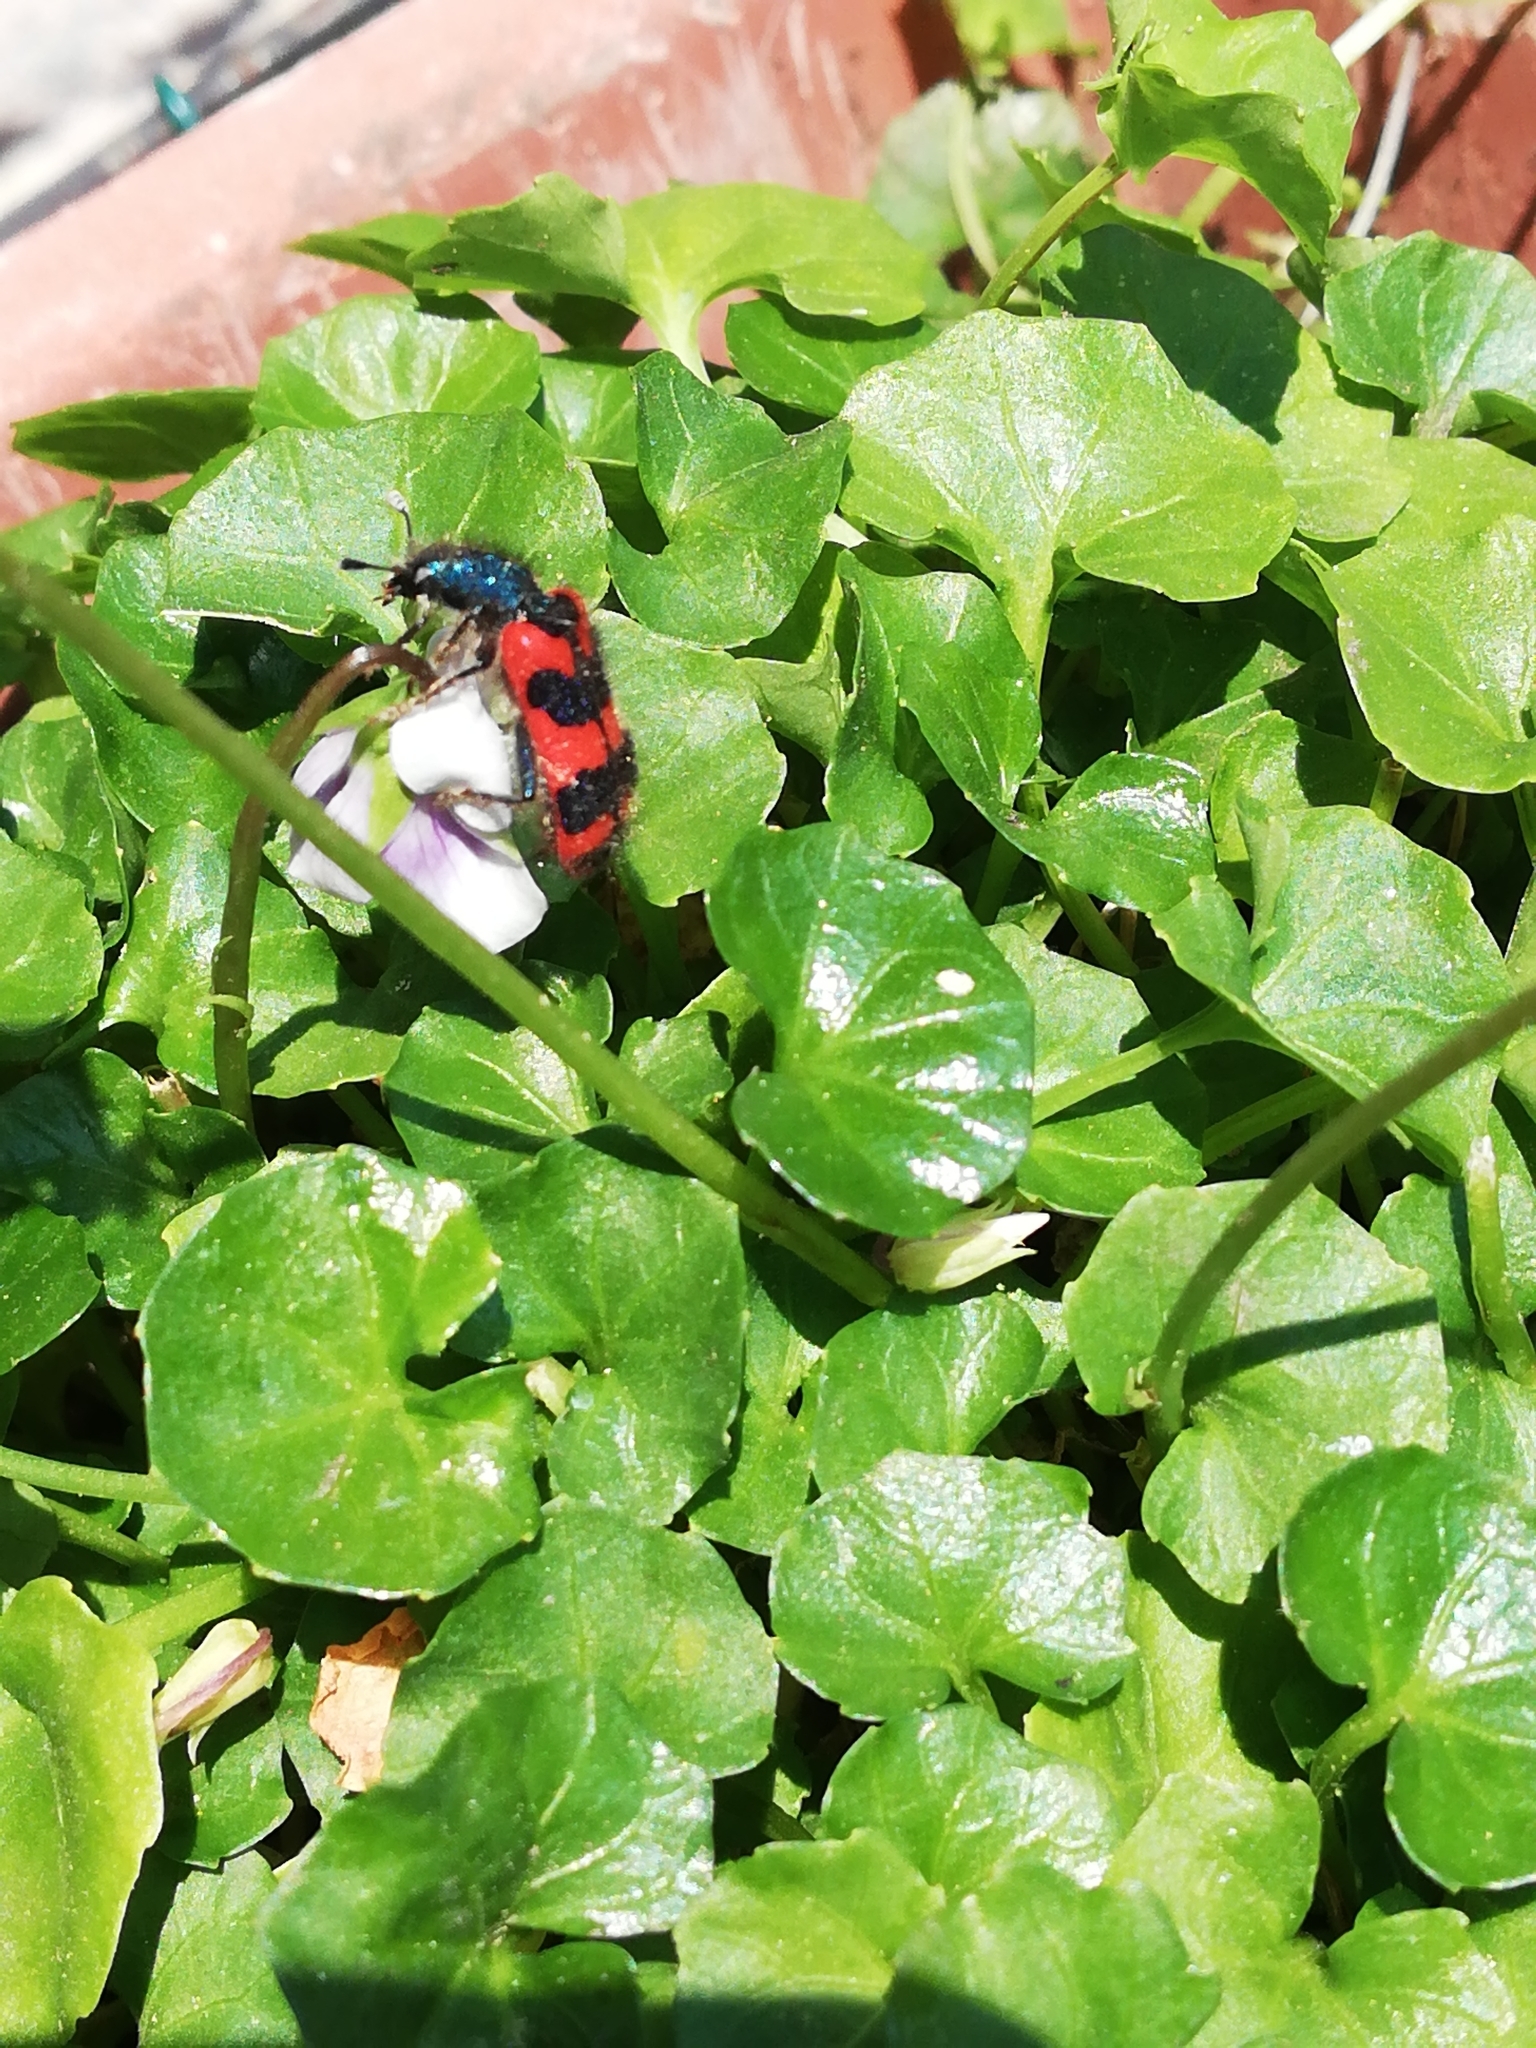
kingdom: Animalia
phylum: Arthropoda
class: Insecta
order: Coleoptera
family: Cleridae
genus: Trichodes
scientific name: Trichodes alvearius
